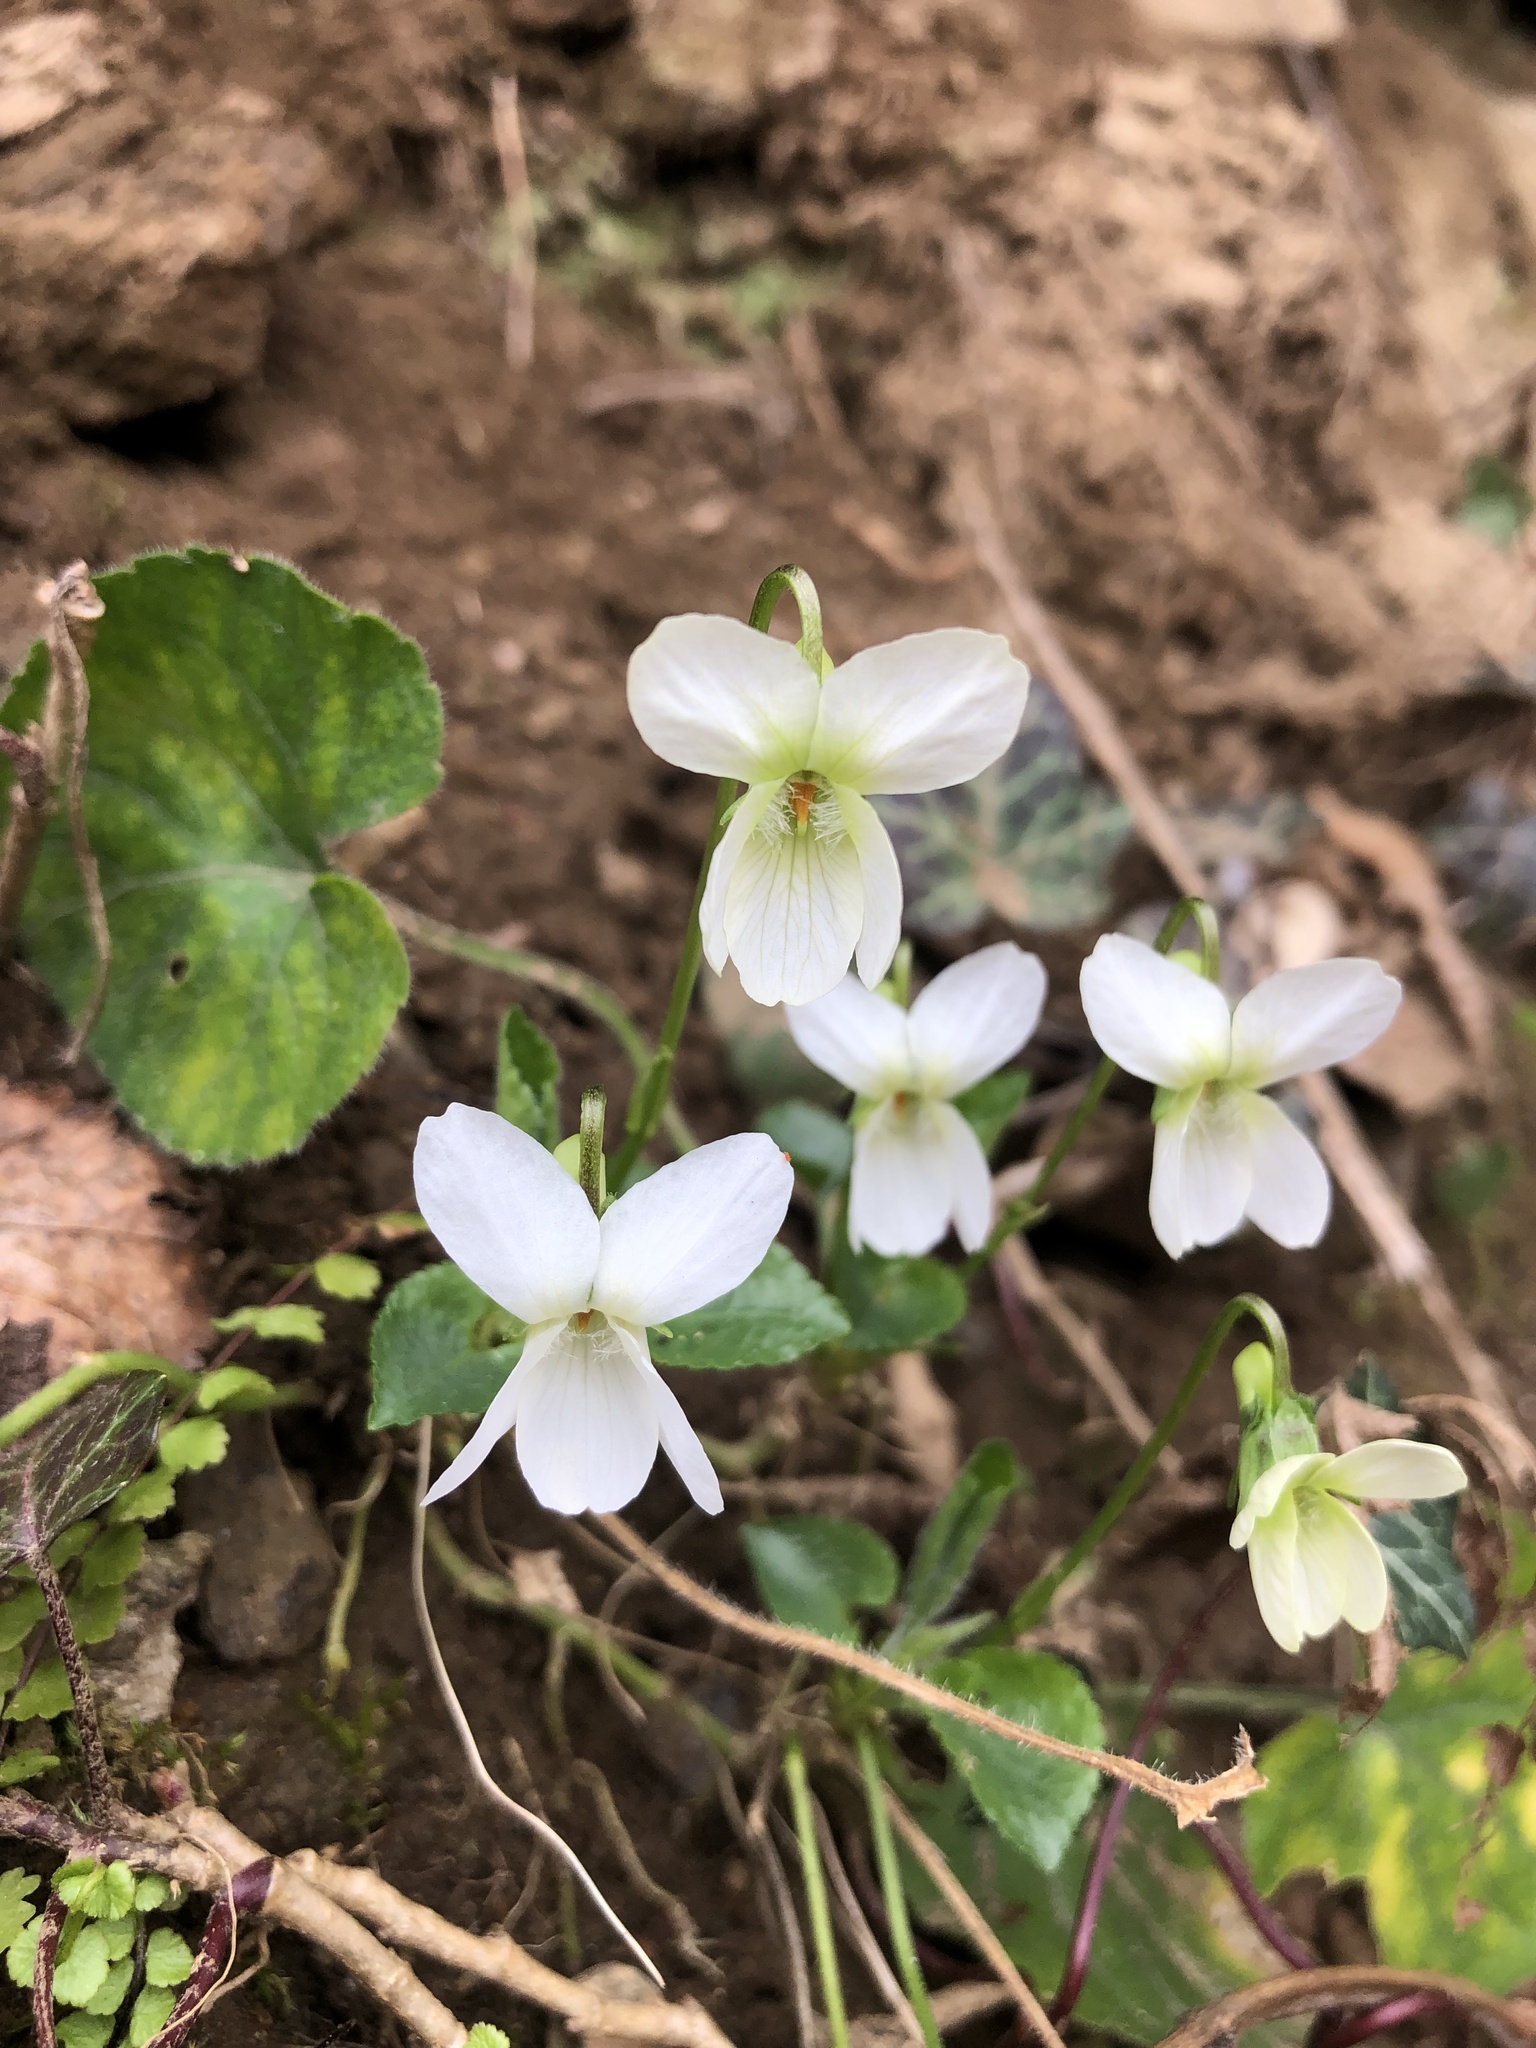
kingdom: Plantae
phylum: Tracheophyta
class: Magnoliopsida
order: Malpighiales
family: Violaceae
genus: Viola
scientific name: Viola alba
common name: White violet
